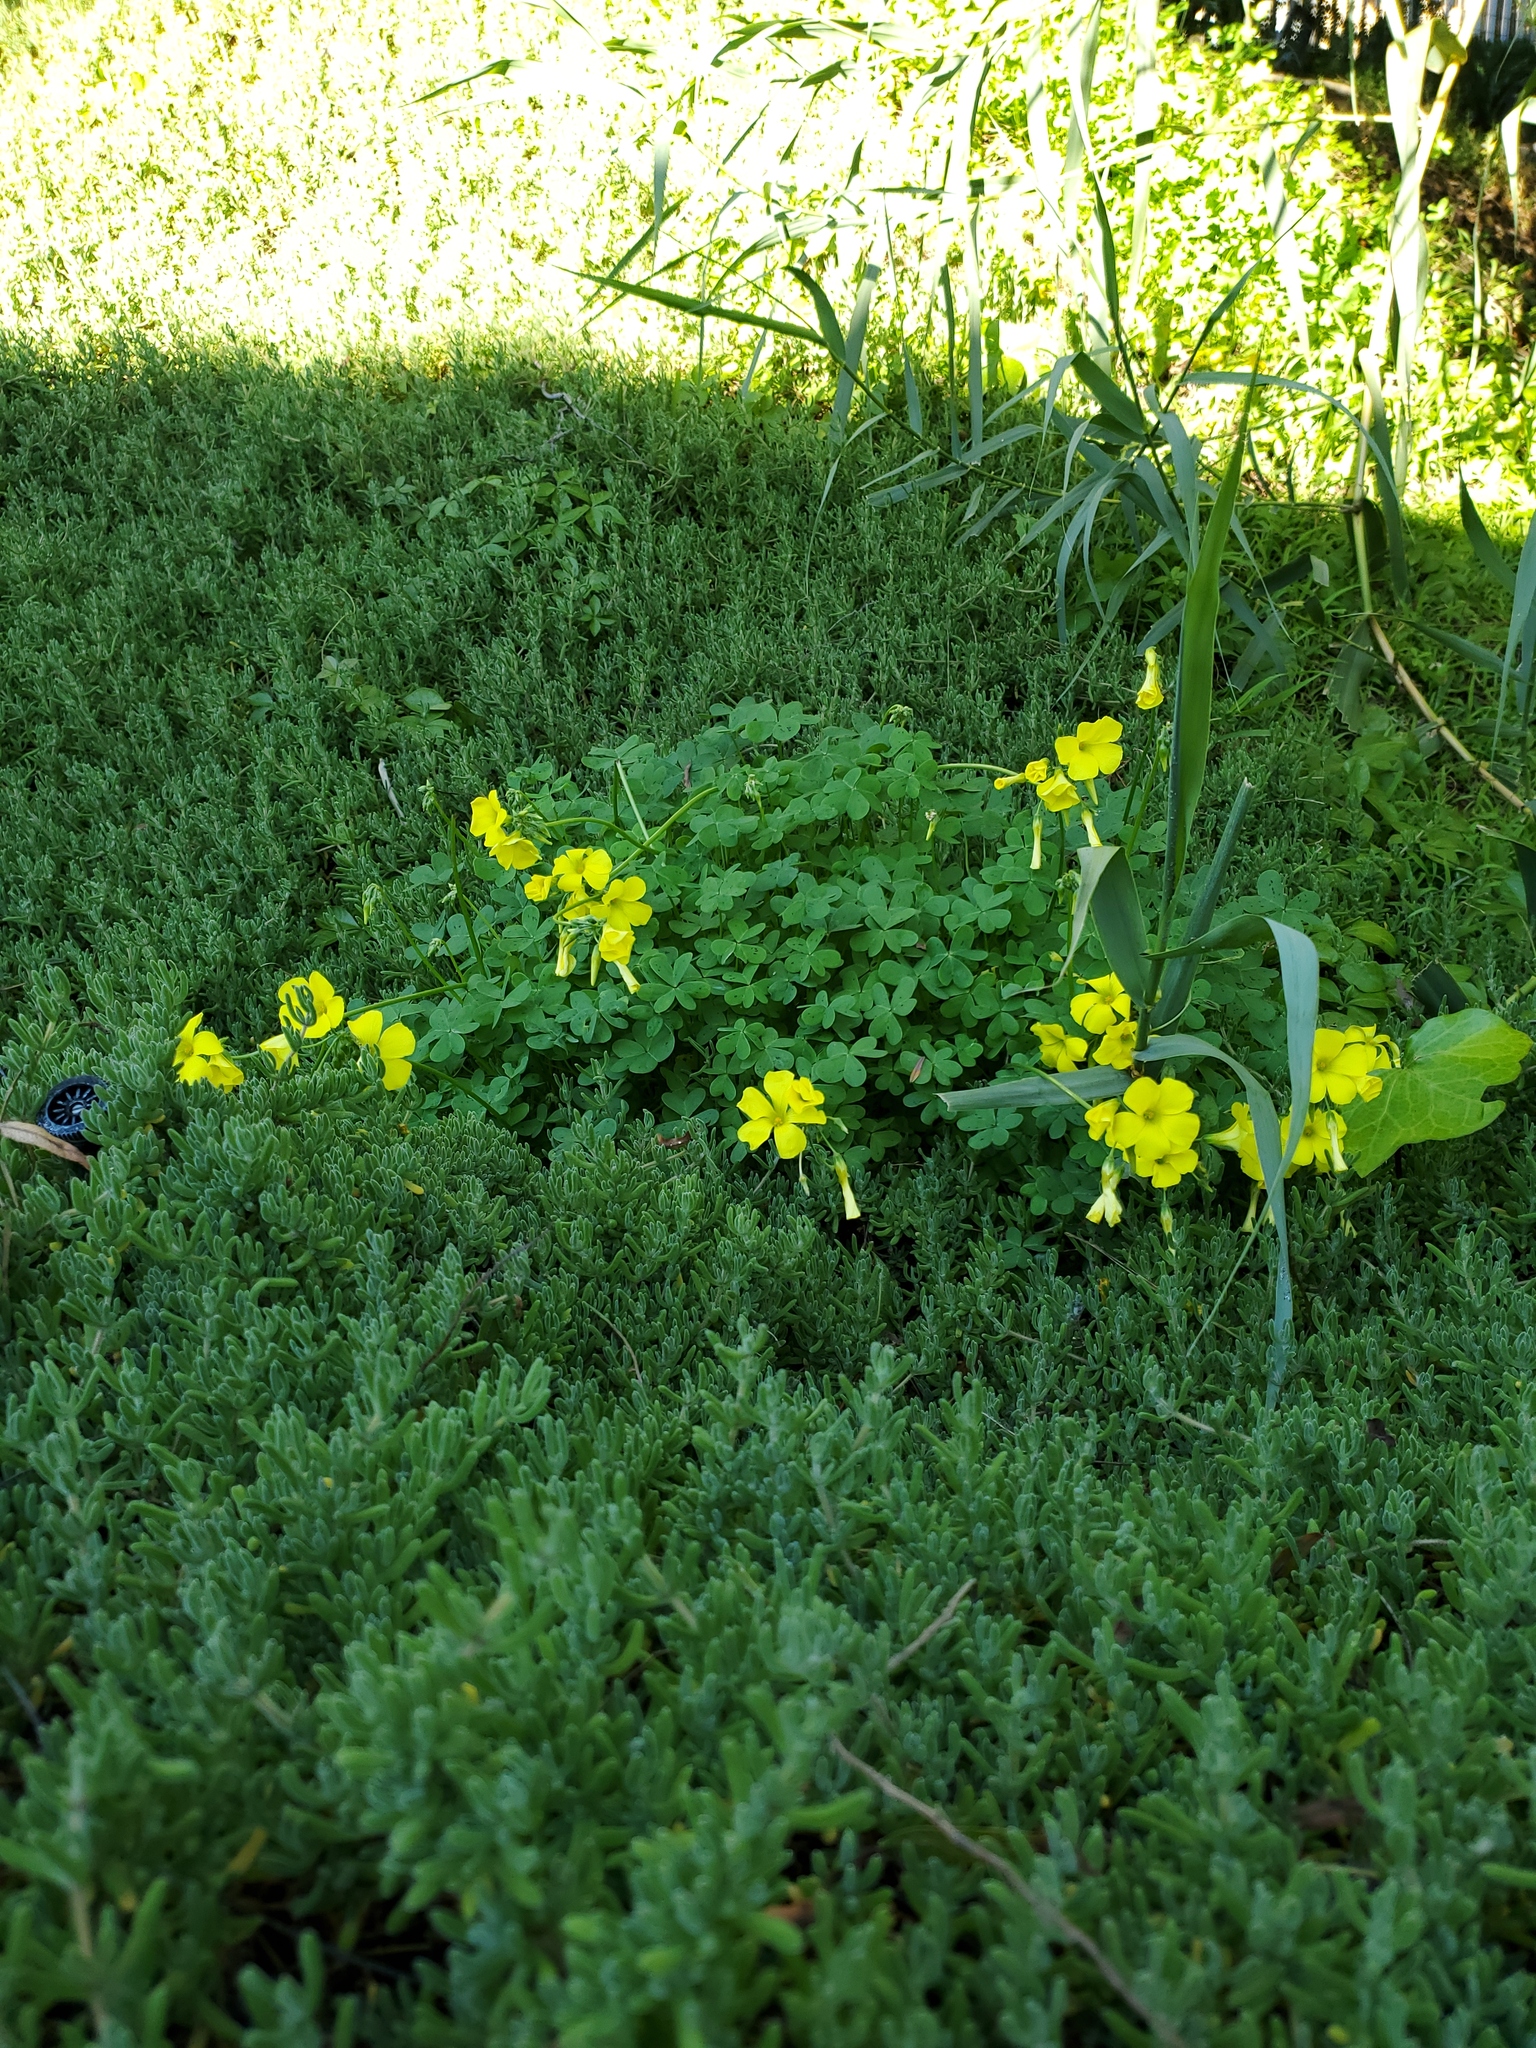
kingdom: Plantae
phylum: Tracheophyta
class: Magnoliopsida
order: Oxalidales
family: Oxalidaceae
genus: Oxalis
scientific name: Oxalis pes-caprae
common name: Bermuda-buttercup
